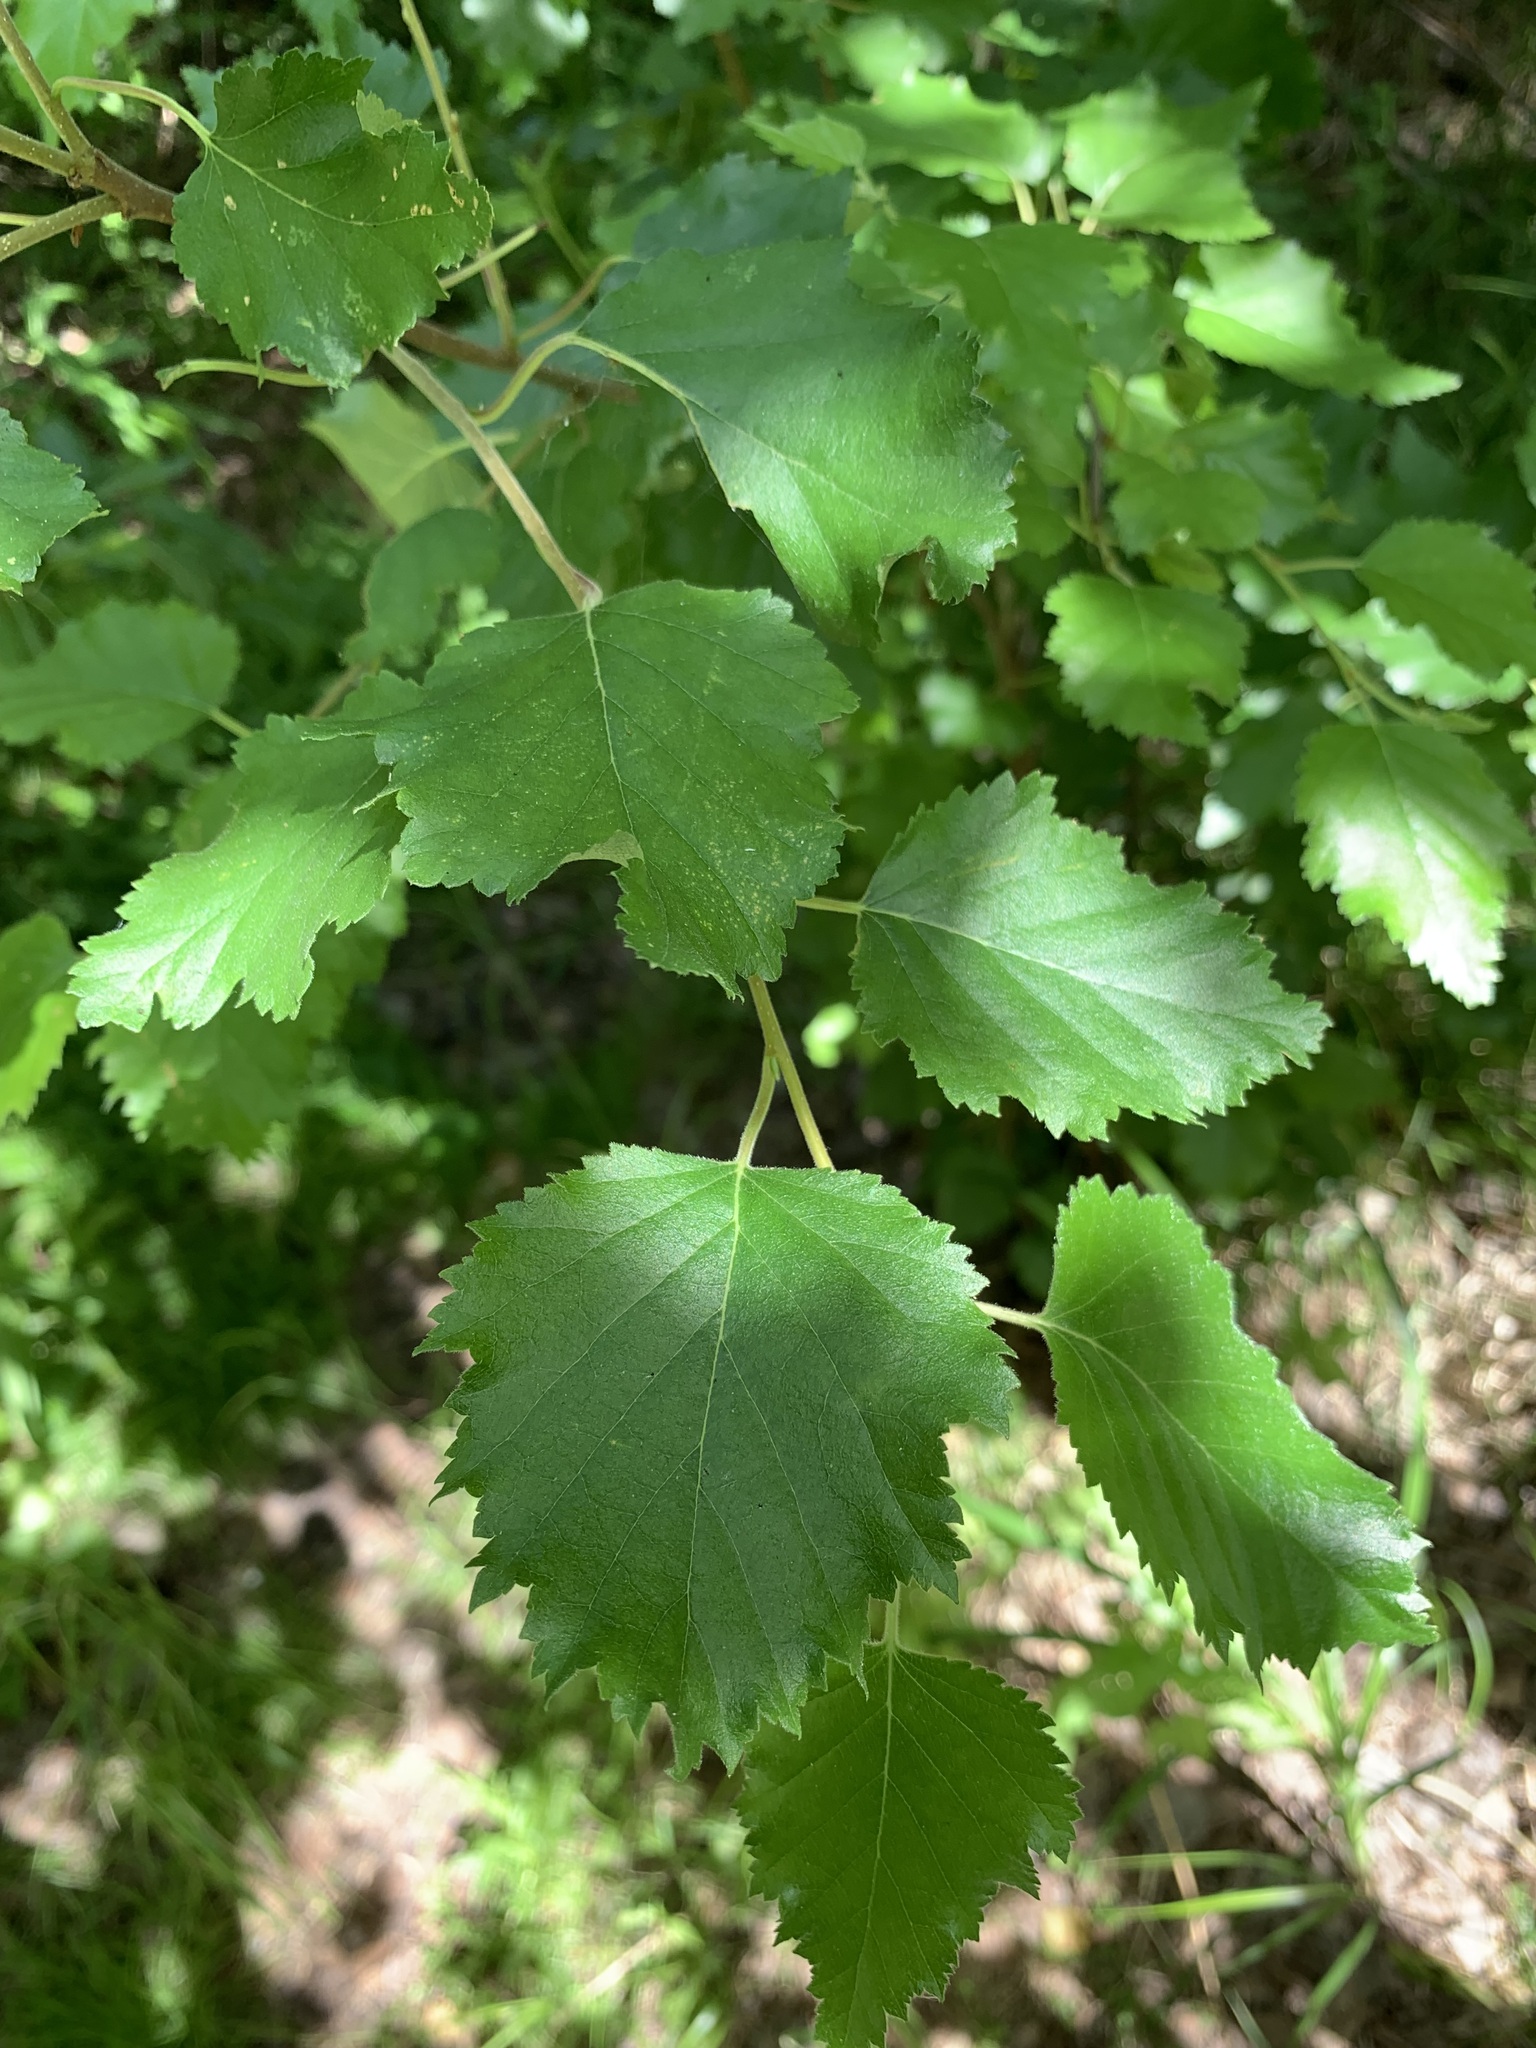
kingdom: Plantae
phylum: Tracheophyta
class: Magnoliopsida
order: Fagales
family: Betulaceae
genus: Betula
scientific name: Betula pubescens
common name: Downy birch
